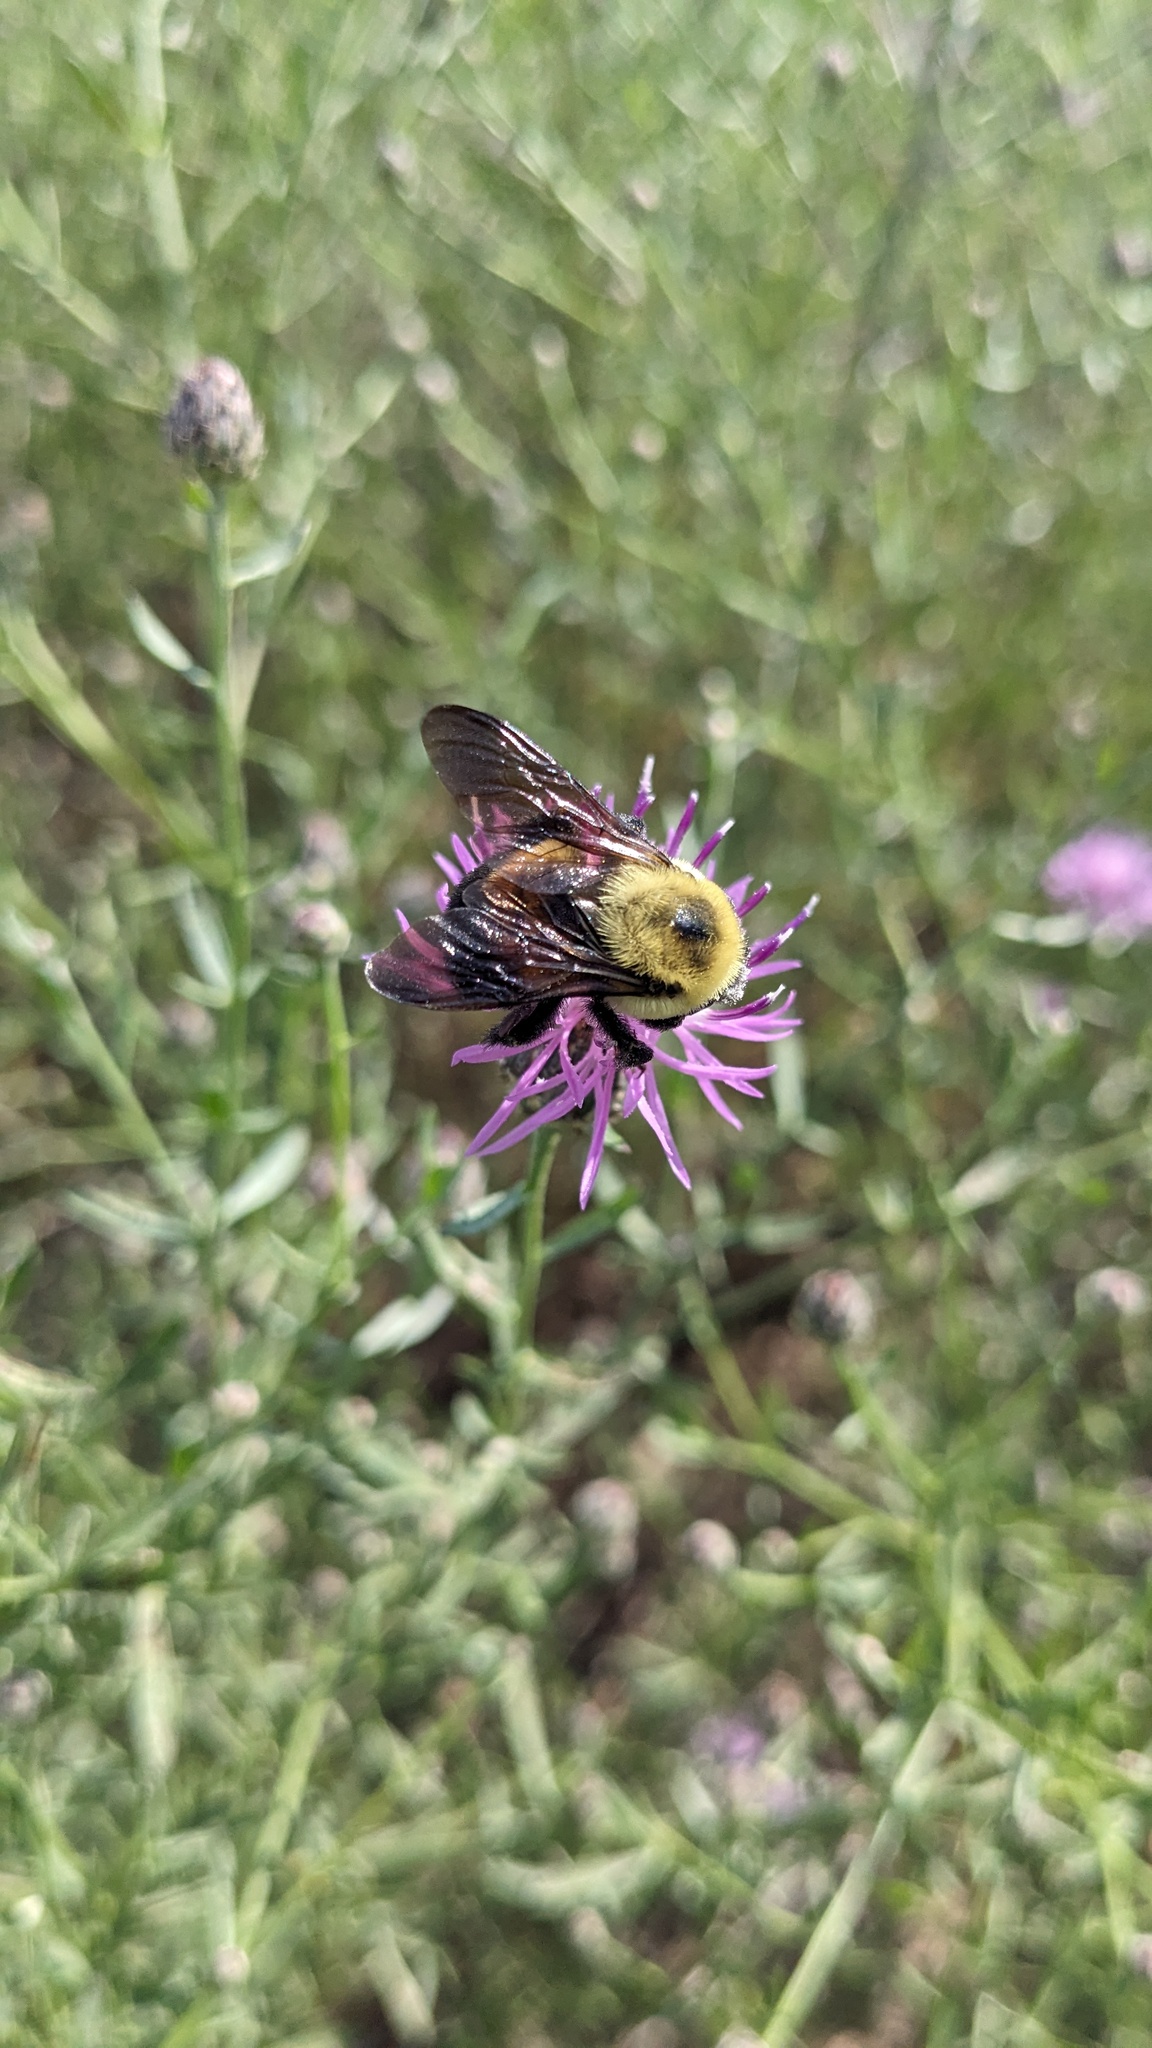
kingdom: Animalia
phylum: Arthropoda
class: Insecta
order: Hymenoptera
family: Apidae
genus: Bombus
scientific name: Bombus griseocollis
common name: Brown-belted bumble bee
